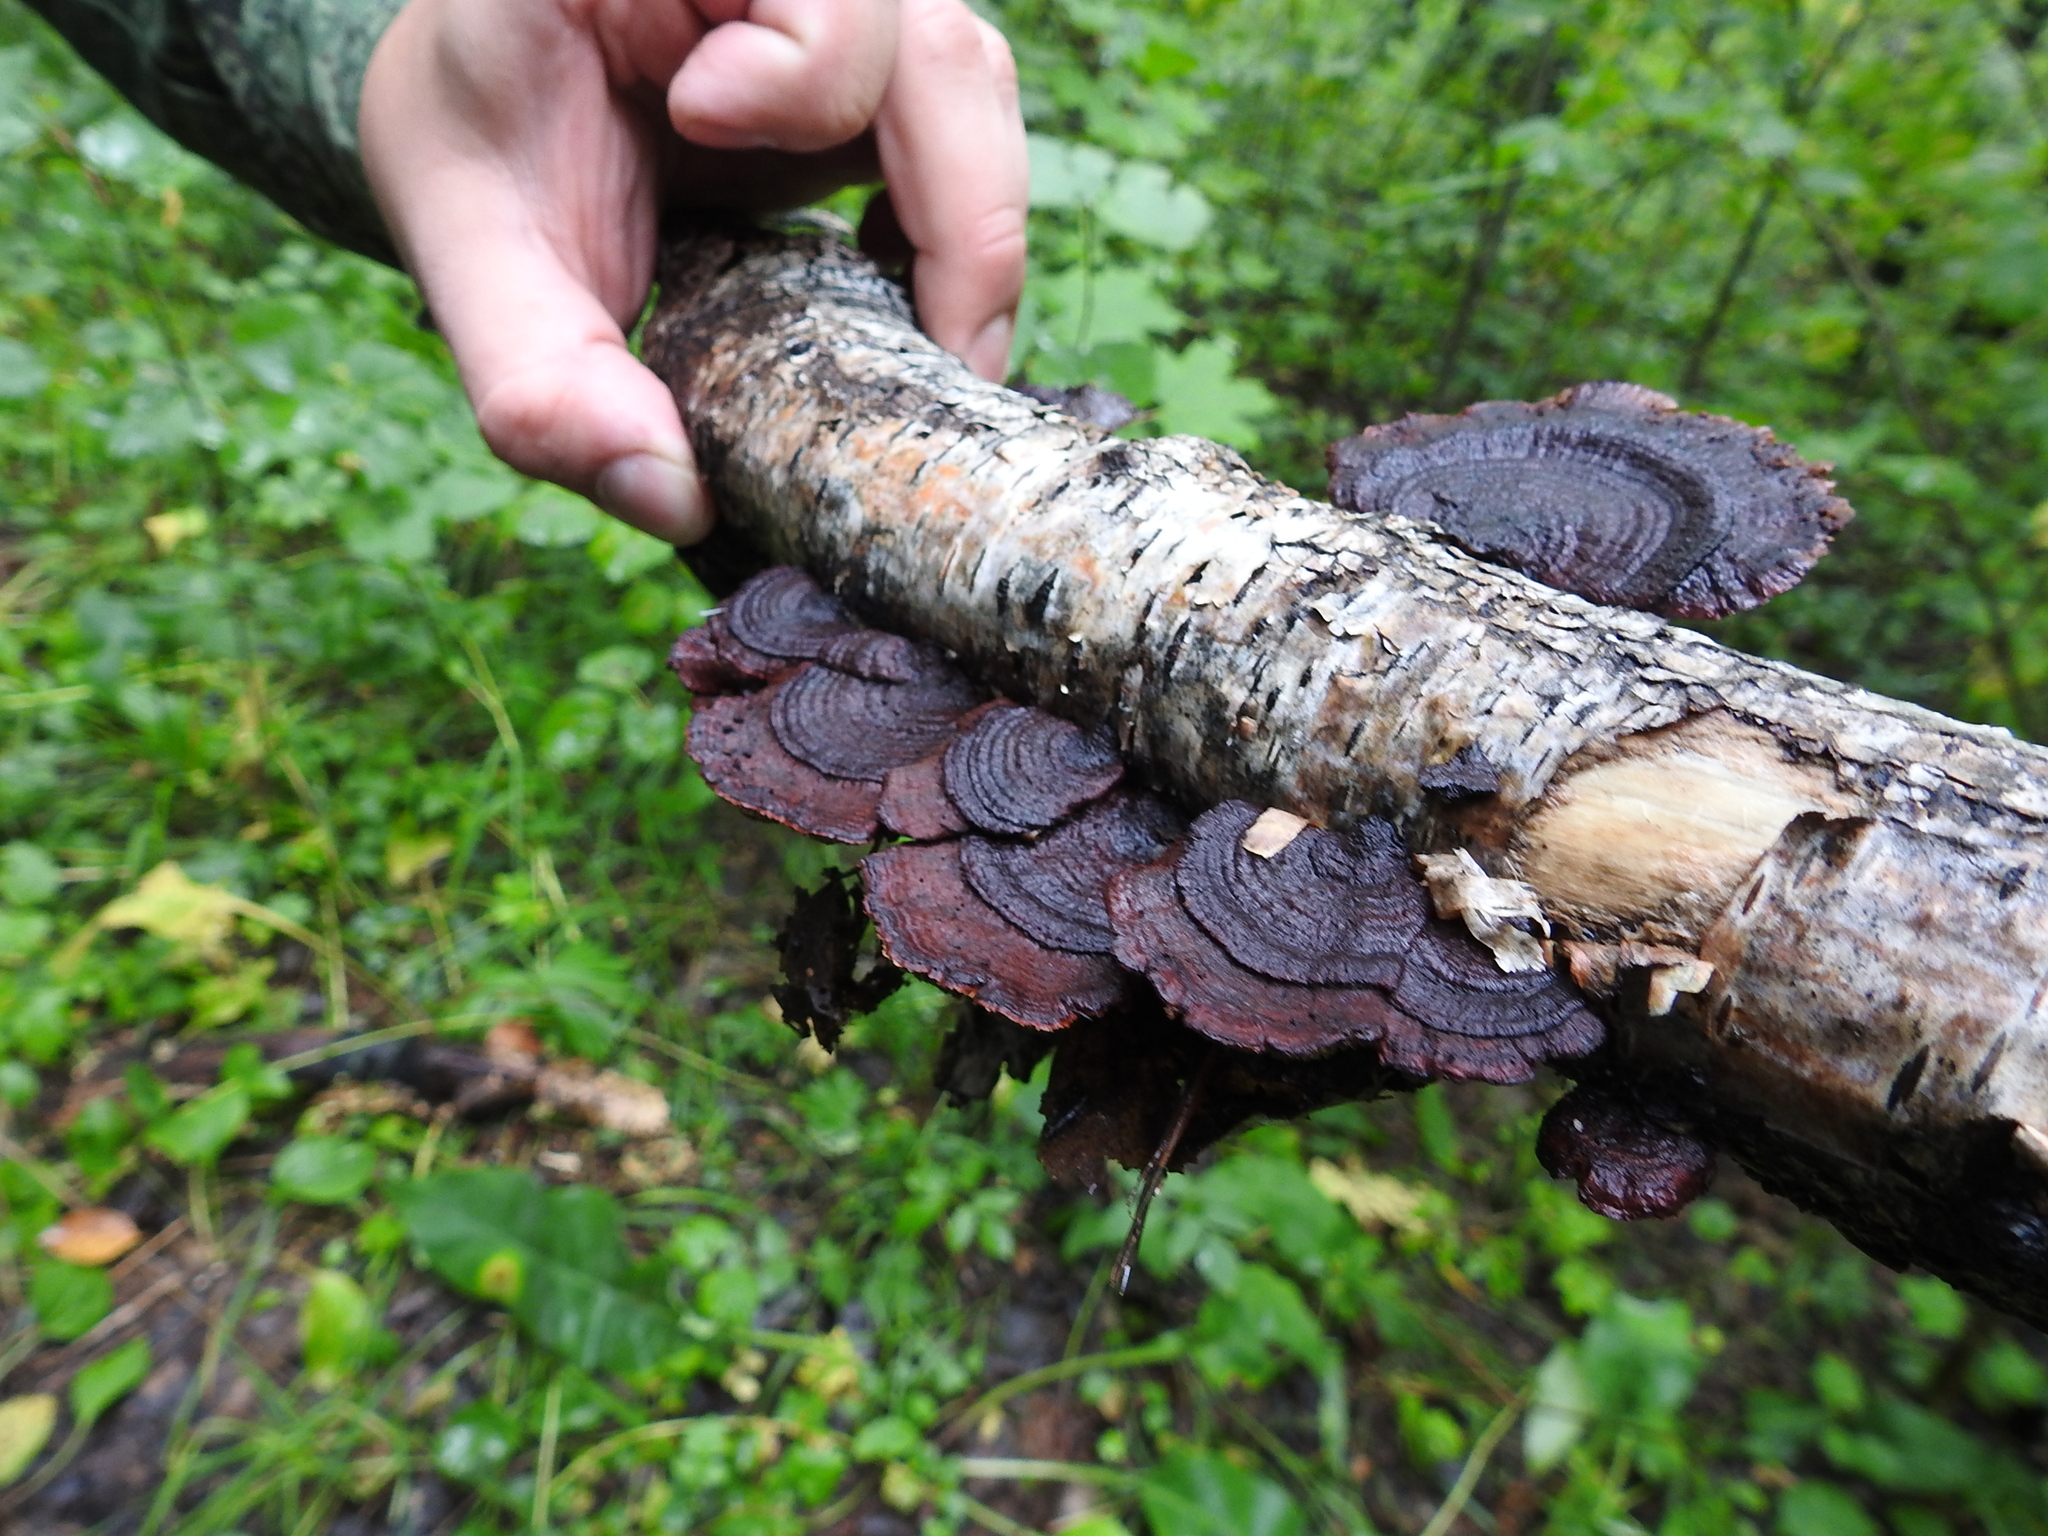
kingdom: Fungi
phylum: Basidiomycota
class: Agaricomycetes
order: Polyporales
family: Polyporaceae
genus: Daedaleopsis
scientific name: Daedaleopsis tricolor
